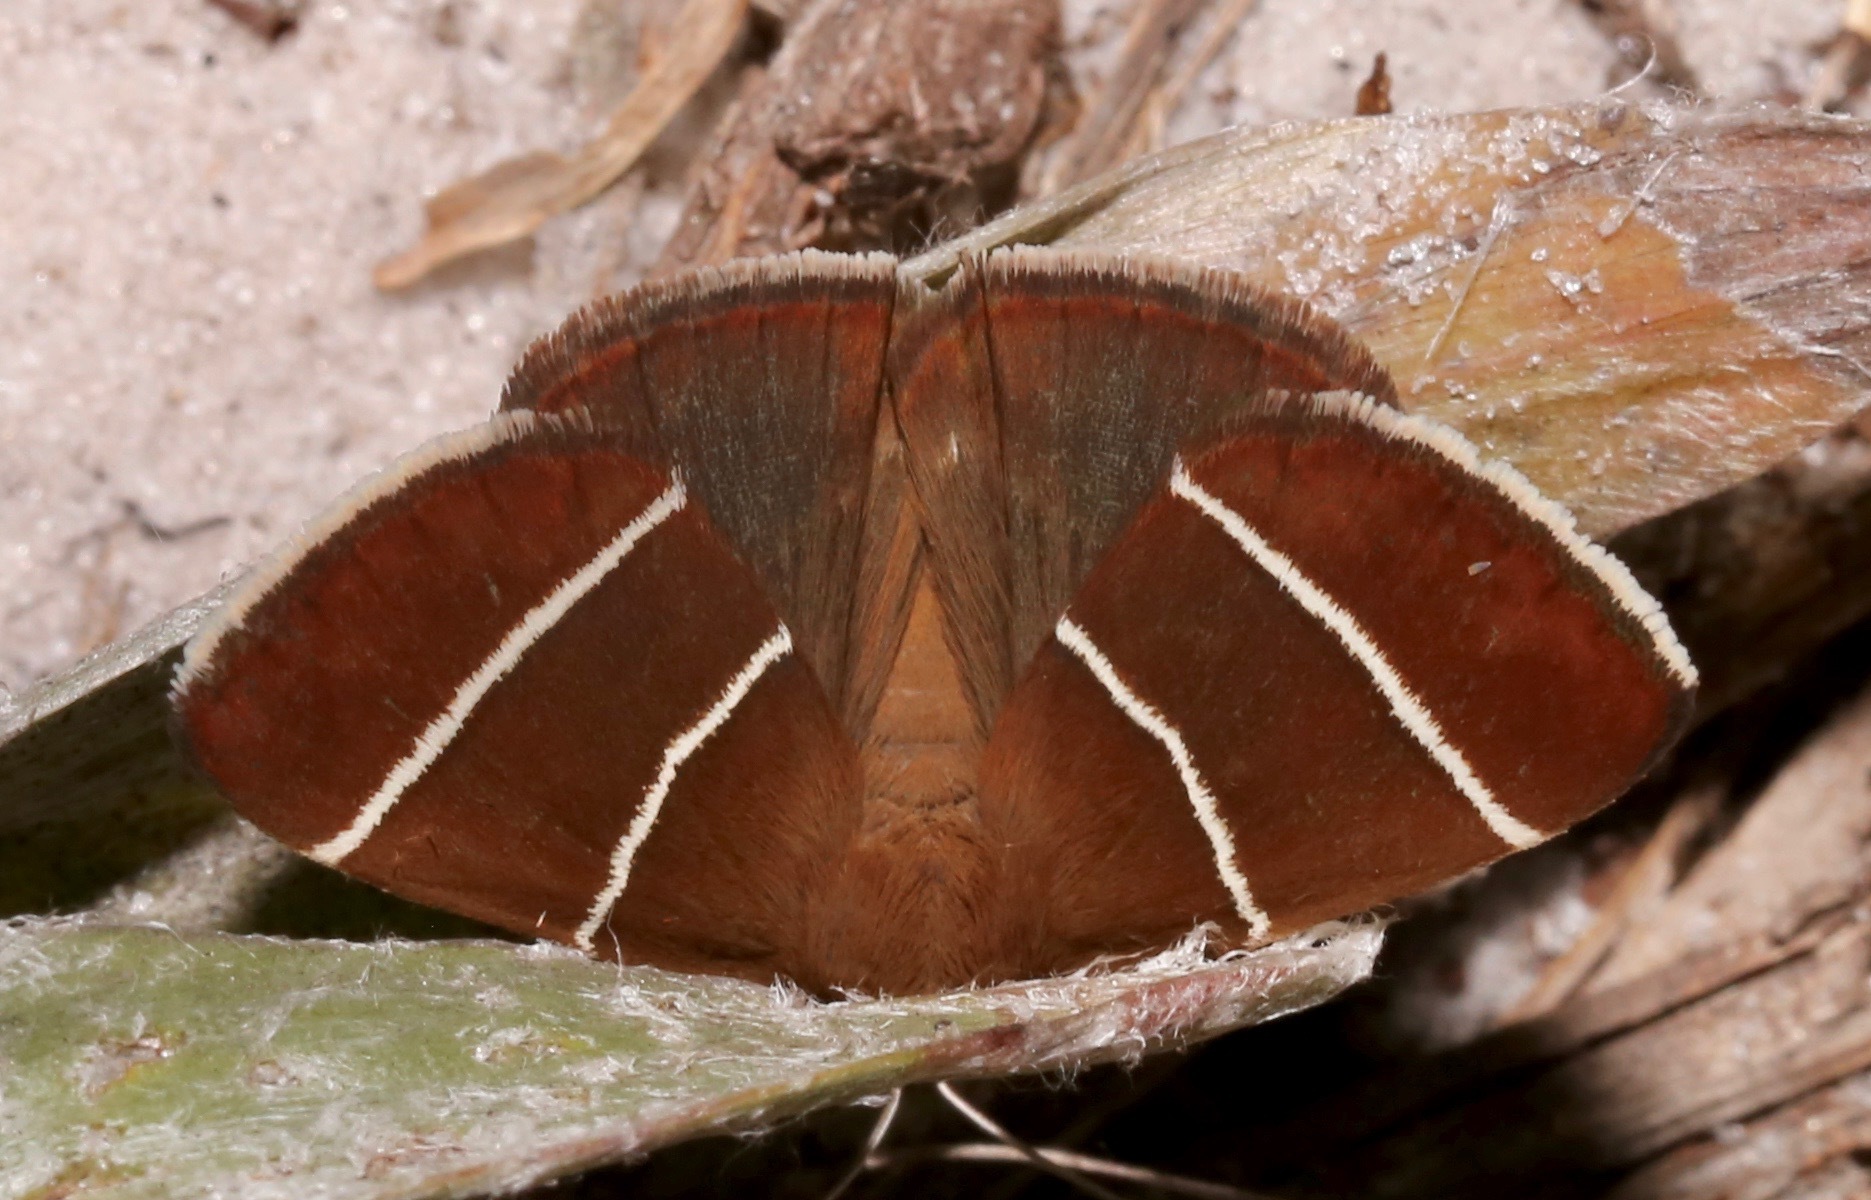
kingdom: Animalia
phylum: Arthropoda
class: Insecta
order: Lepidoptera
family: Erebidae
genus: Argyrostrotis
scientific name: Argyrostrotis quadrifilaris
